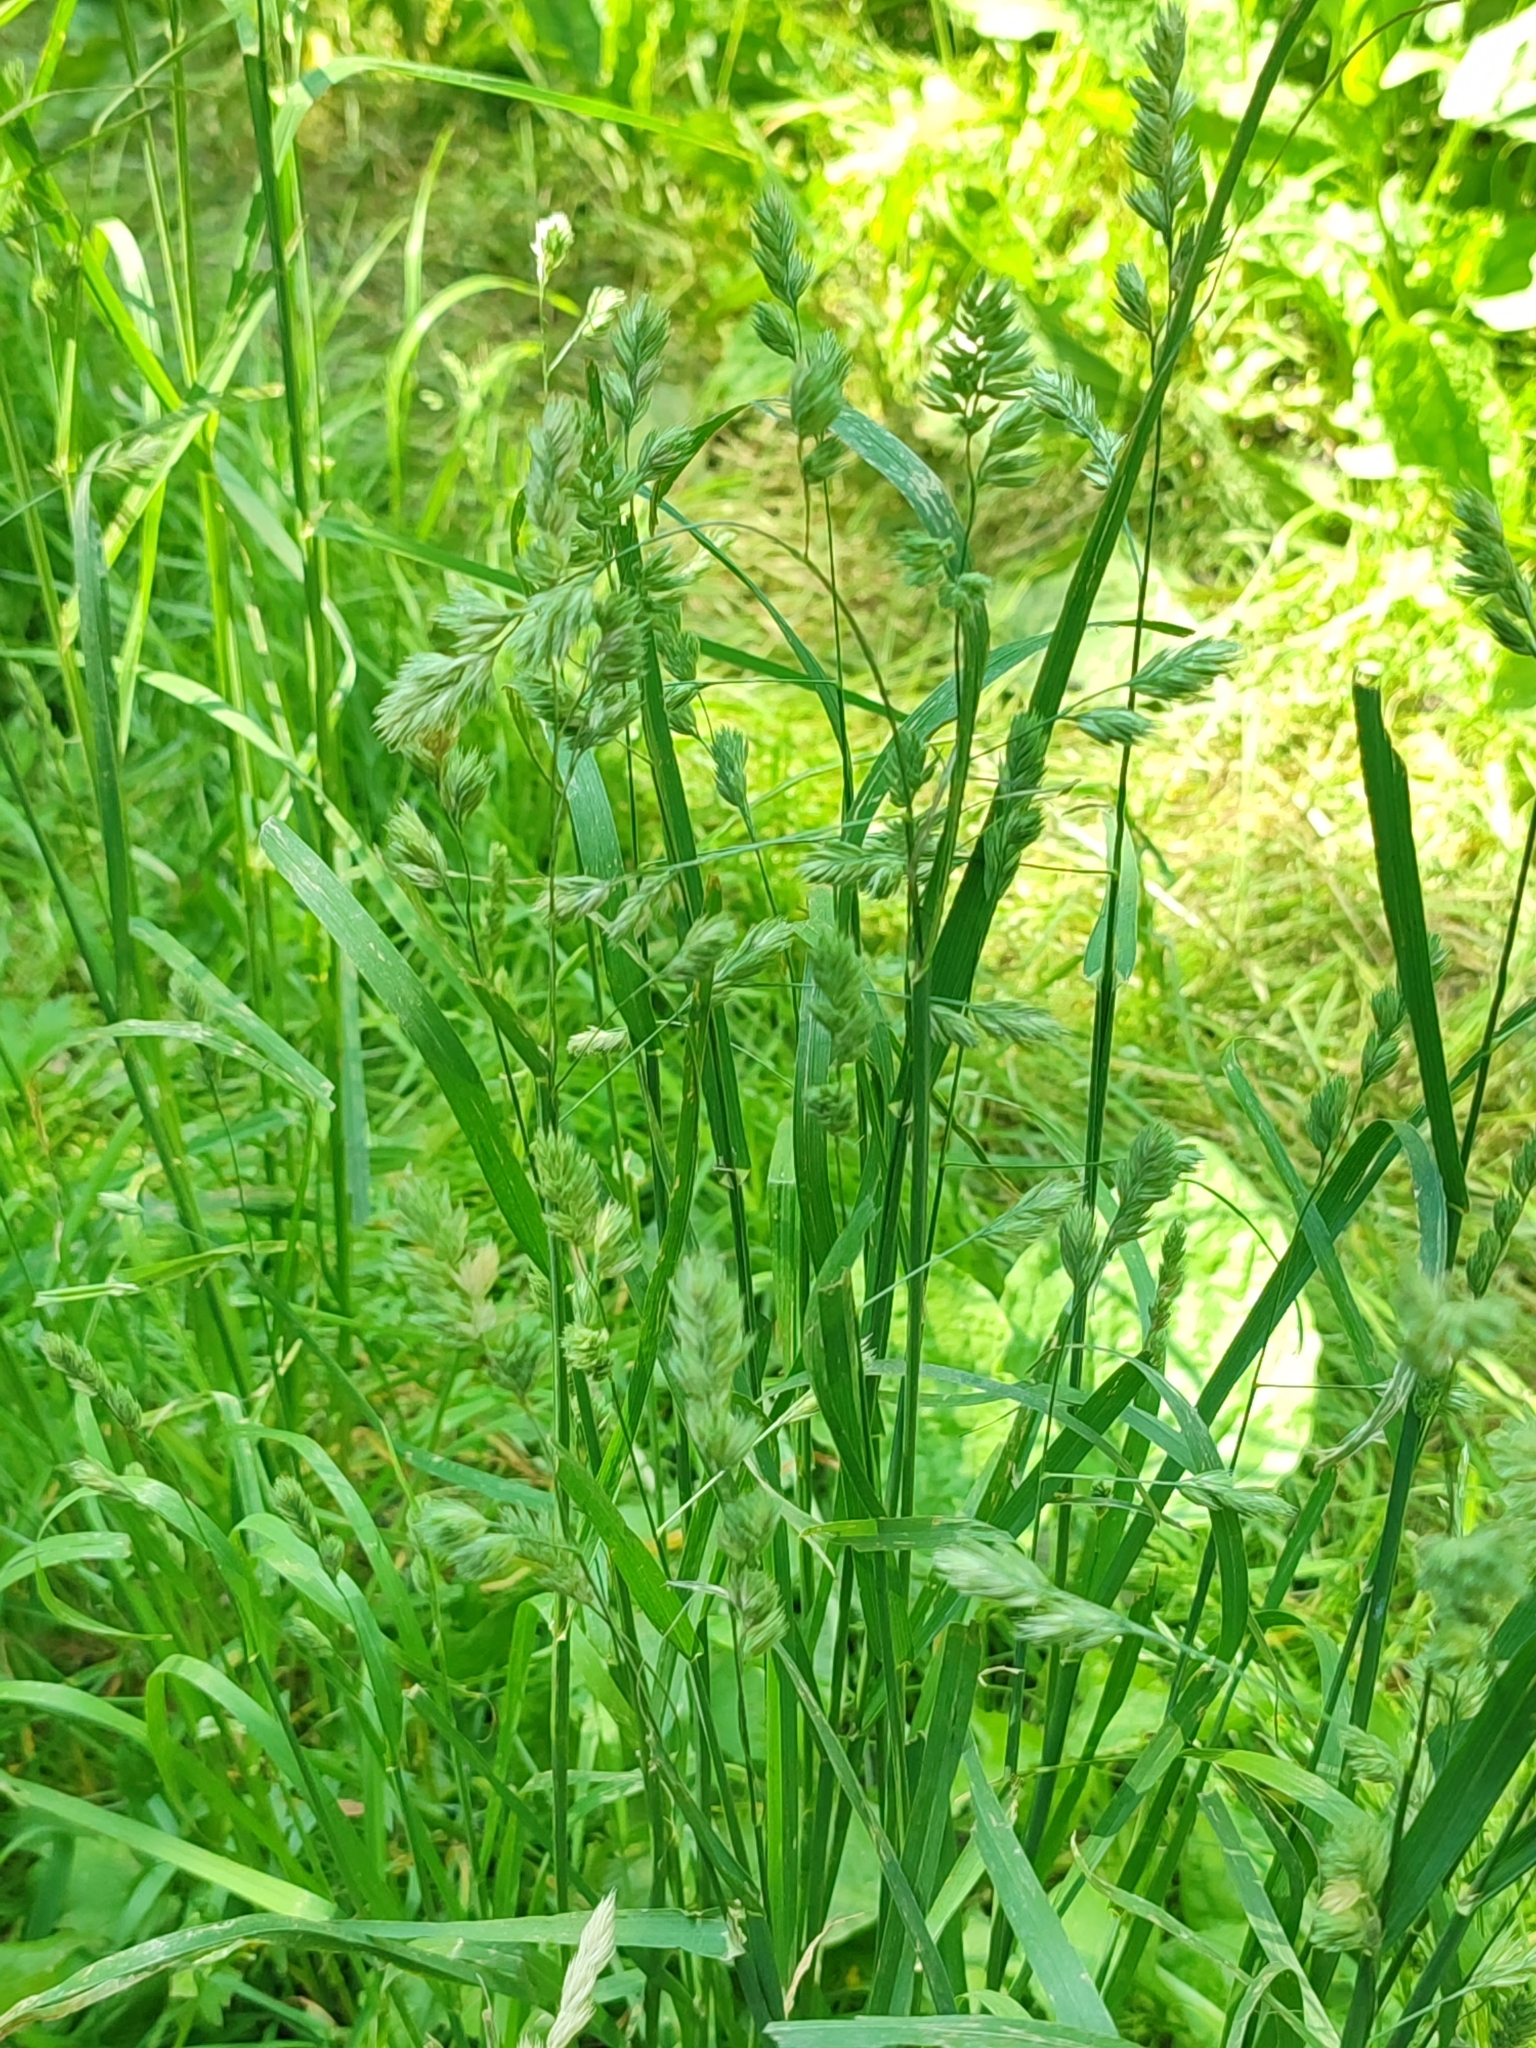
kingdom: Plantae
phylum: Tracheophyta
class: Liliopsida
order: Poales
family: Poaceae
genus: Dactylis
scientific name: Dactylis glomerata
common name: Orchardgrass
